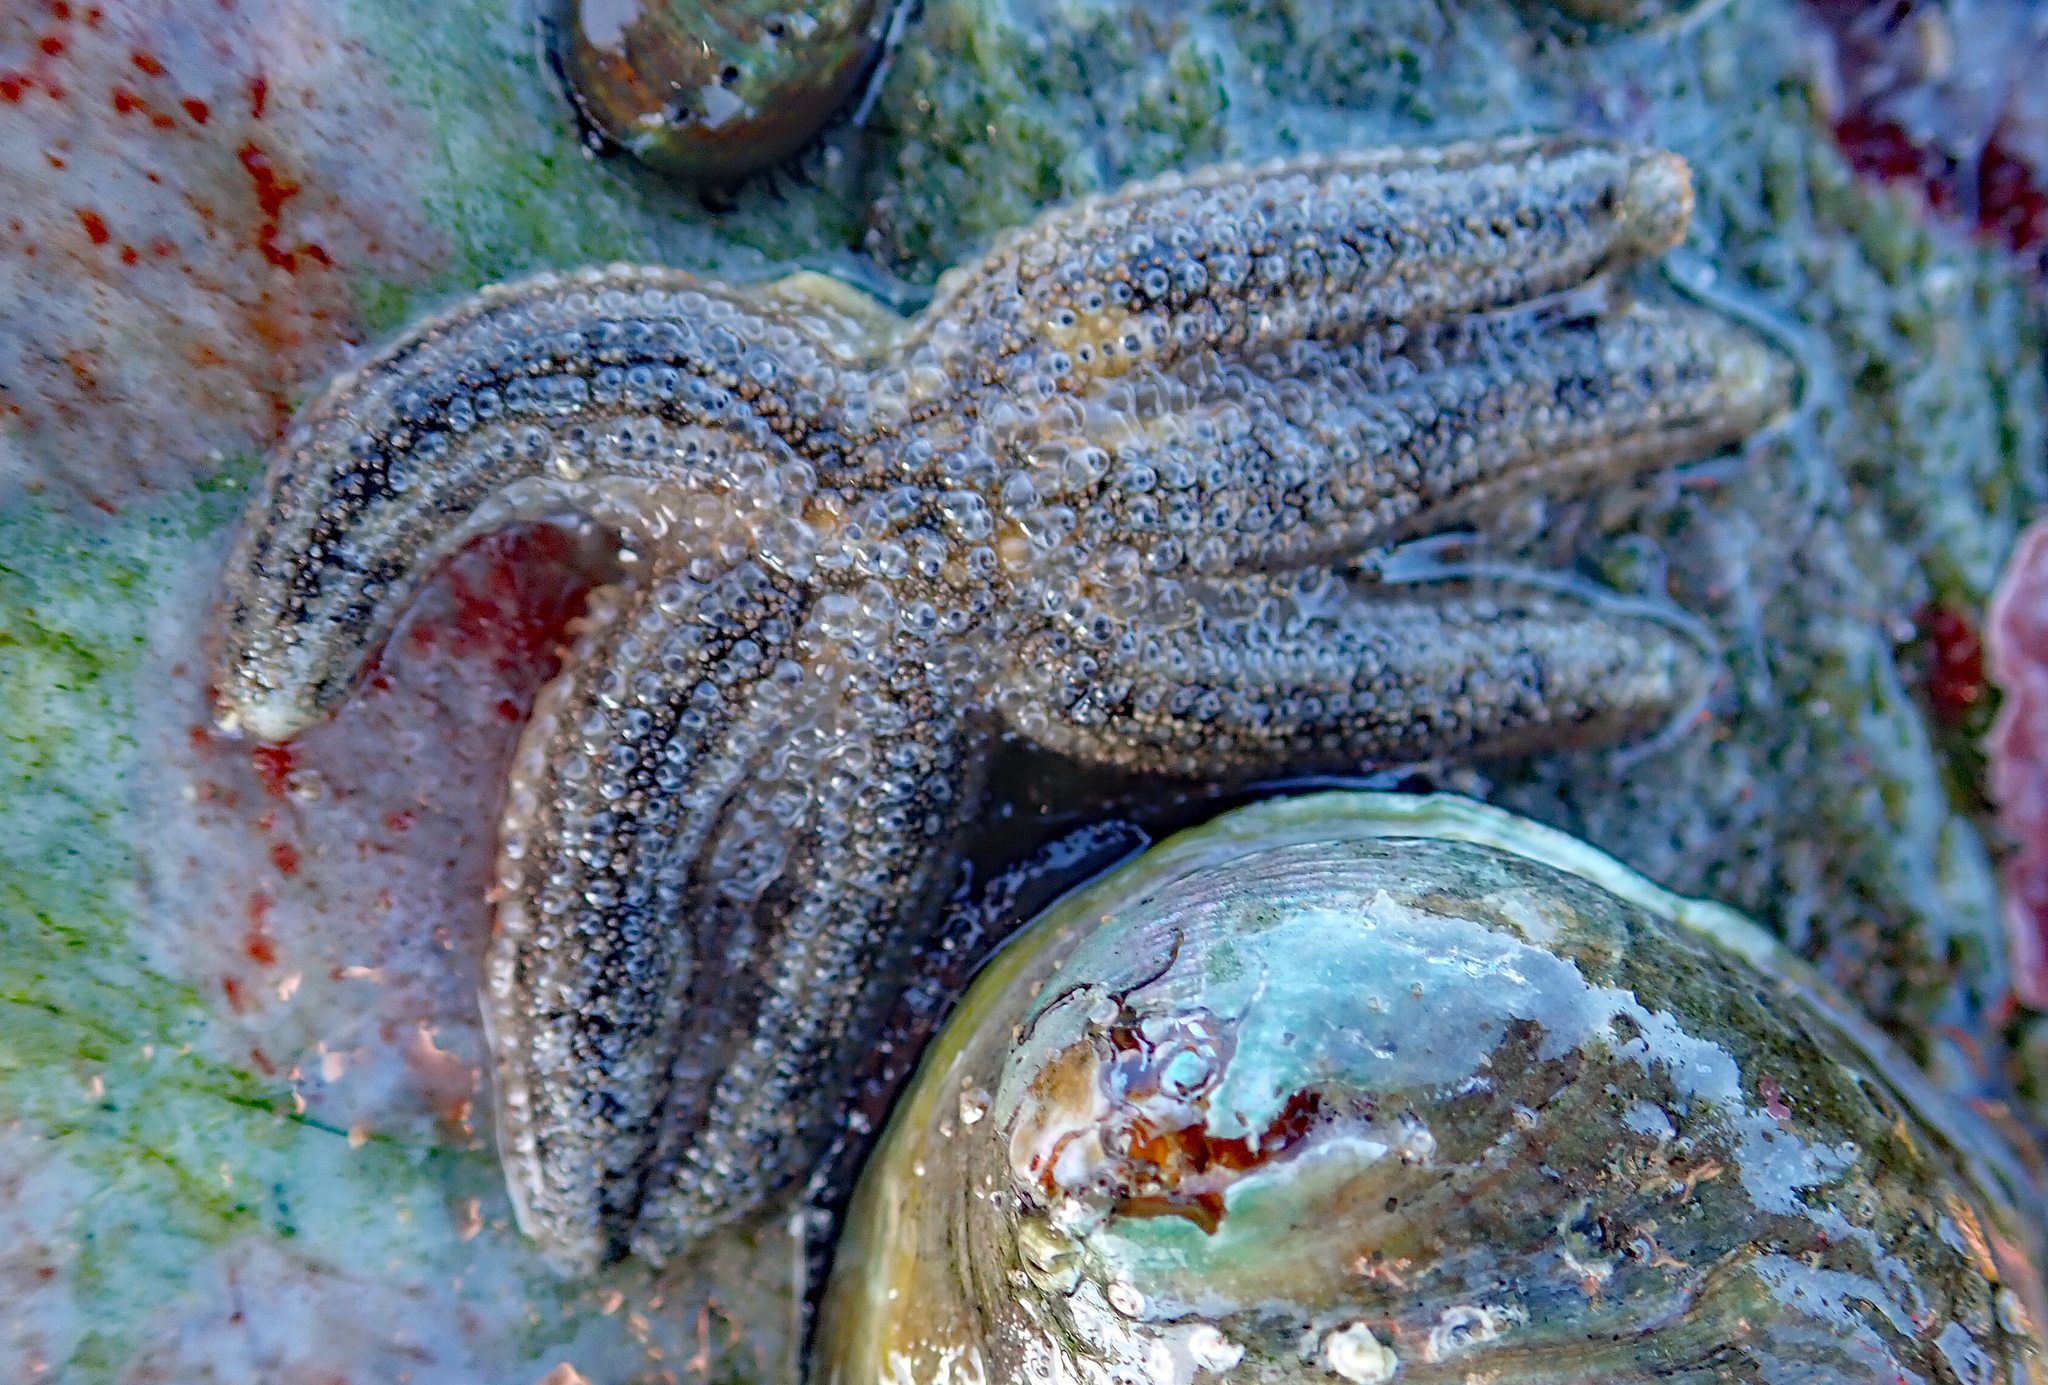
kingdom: Animalia
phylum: Echinodermata
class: Asteroidea
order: Forcipulatida
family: Stichasteridae
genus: Allostichaster
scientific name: Allostichaster polyplax
